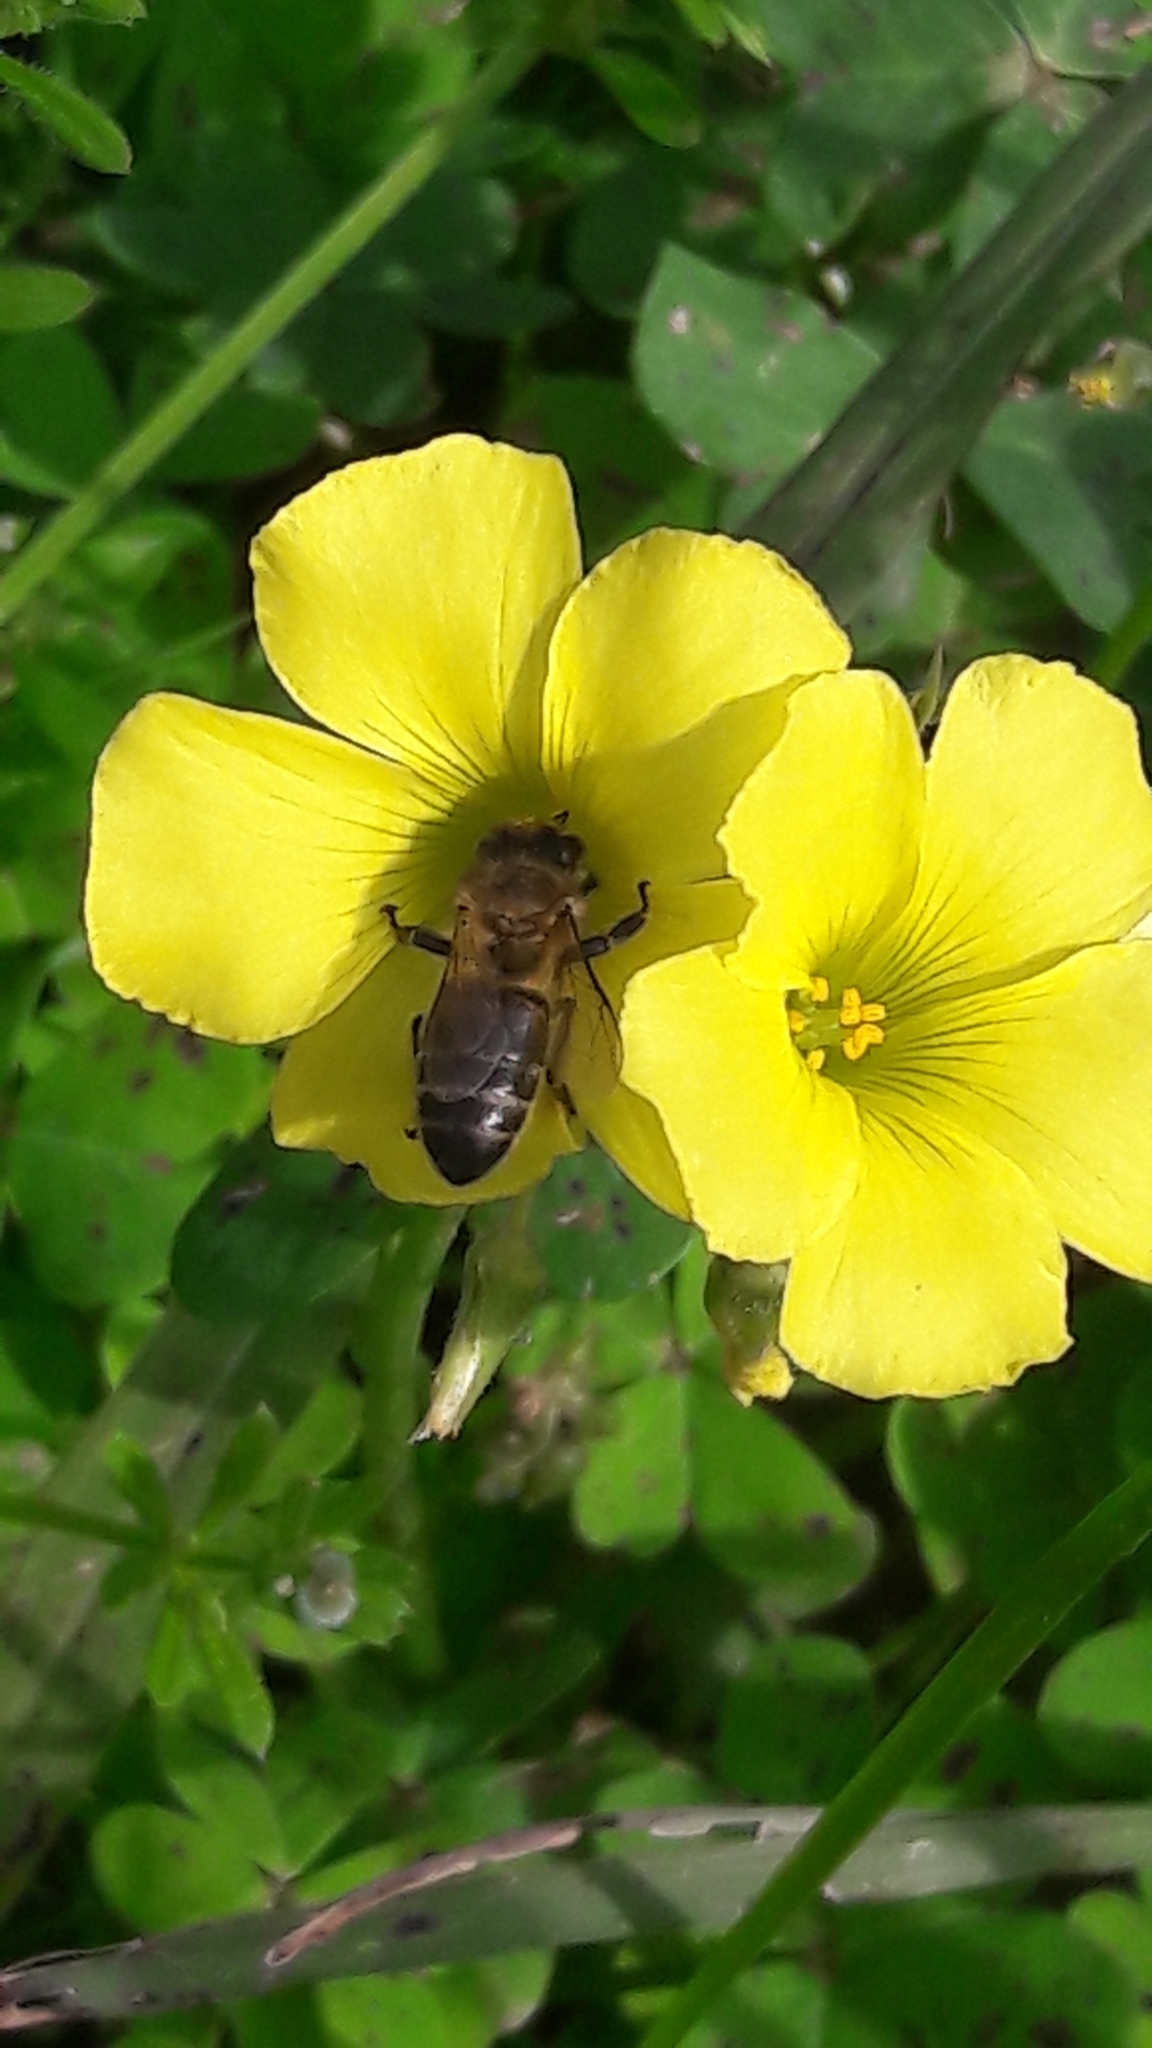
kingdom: Animalia
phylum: Arthropoda
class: Insecta
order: Hymenoptera
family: Apidae
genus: Apis
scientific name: Apis mellifera
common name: Honey bee
